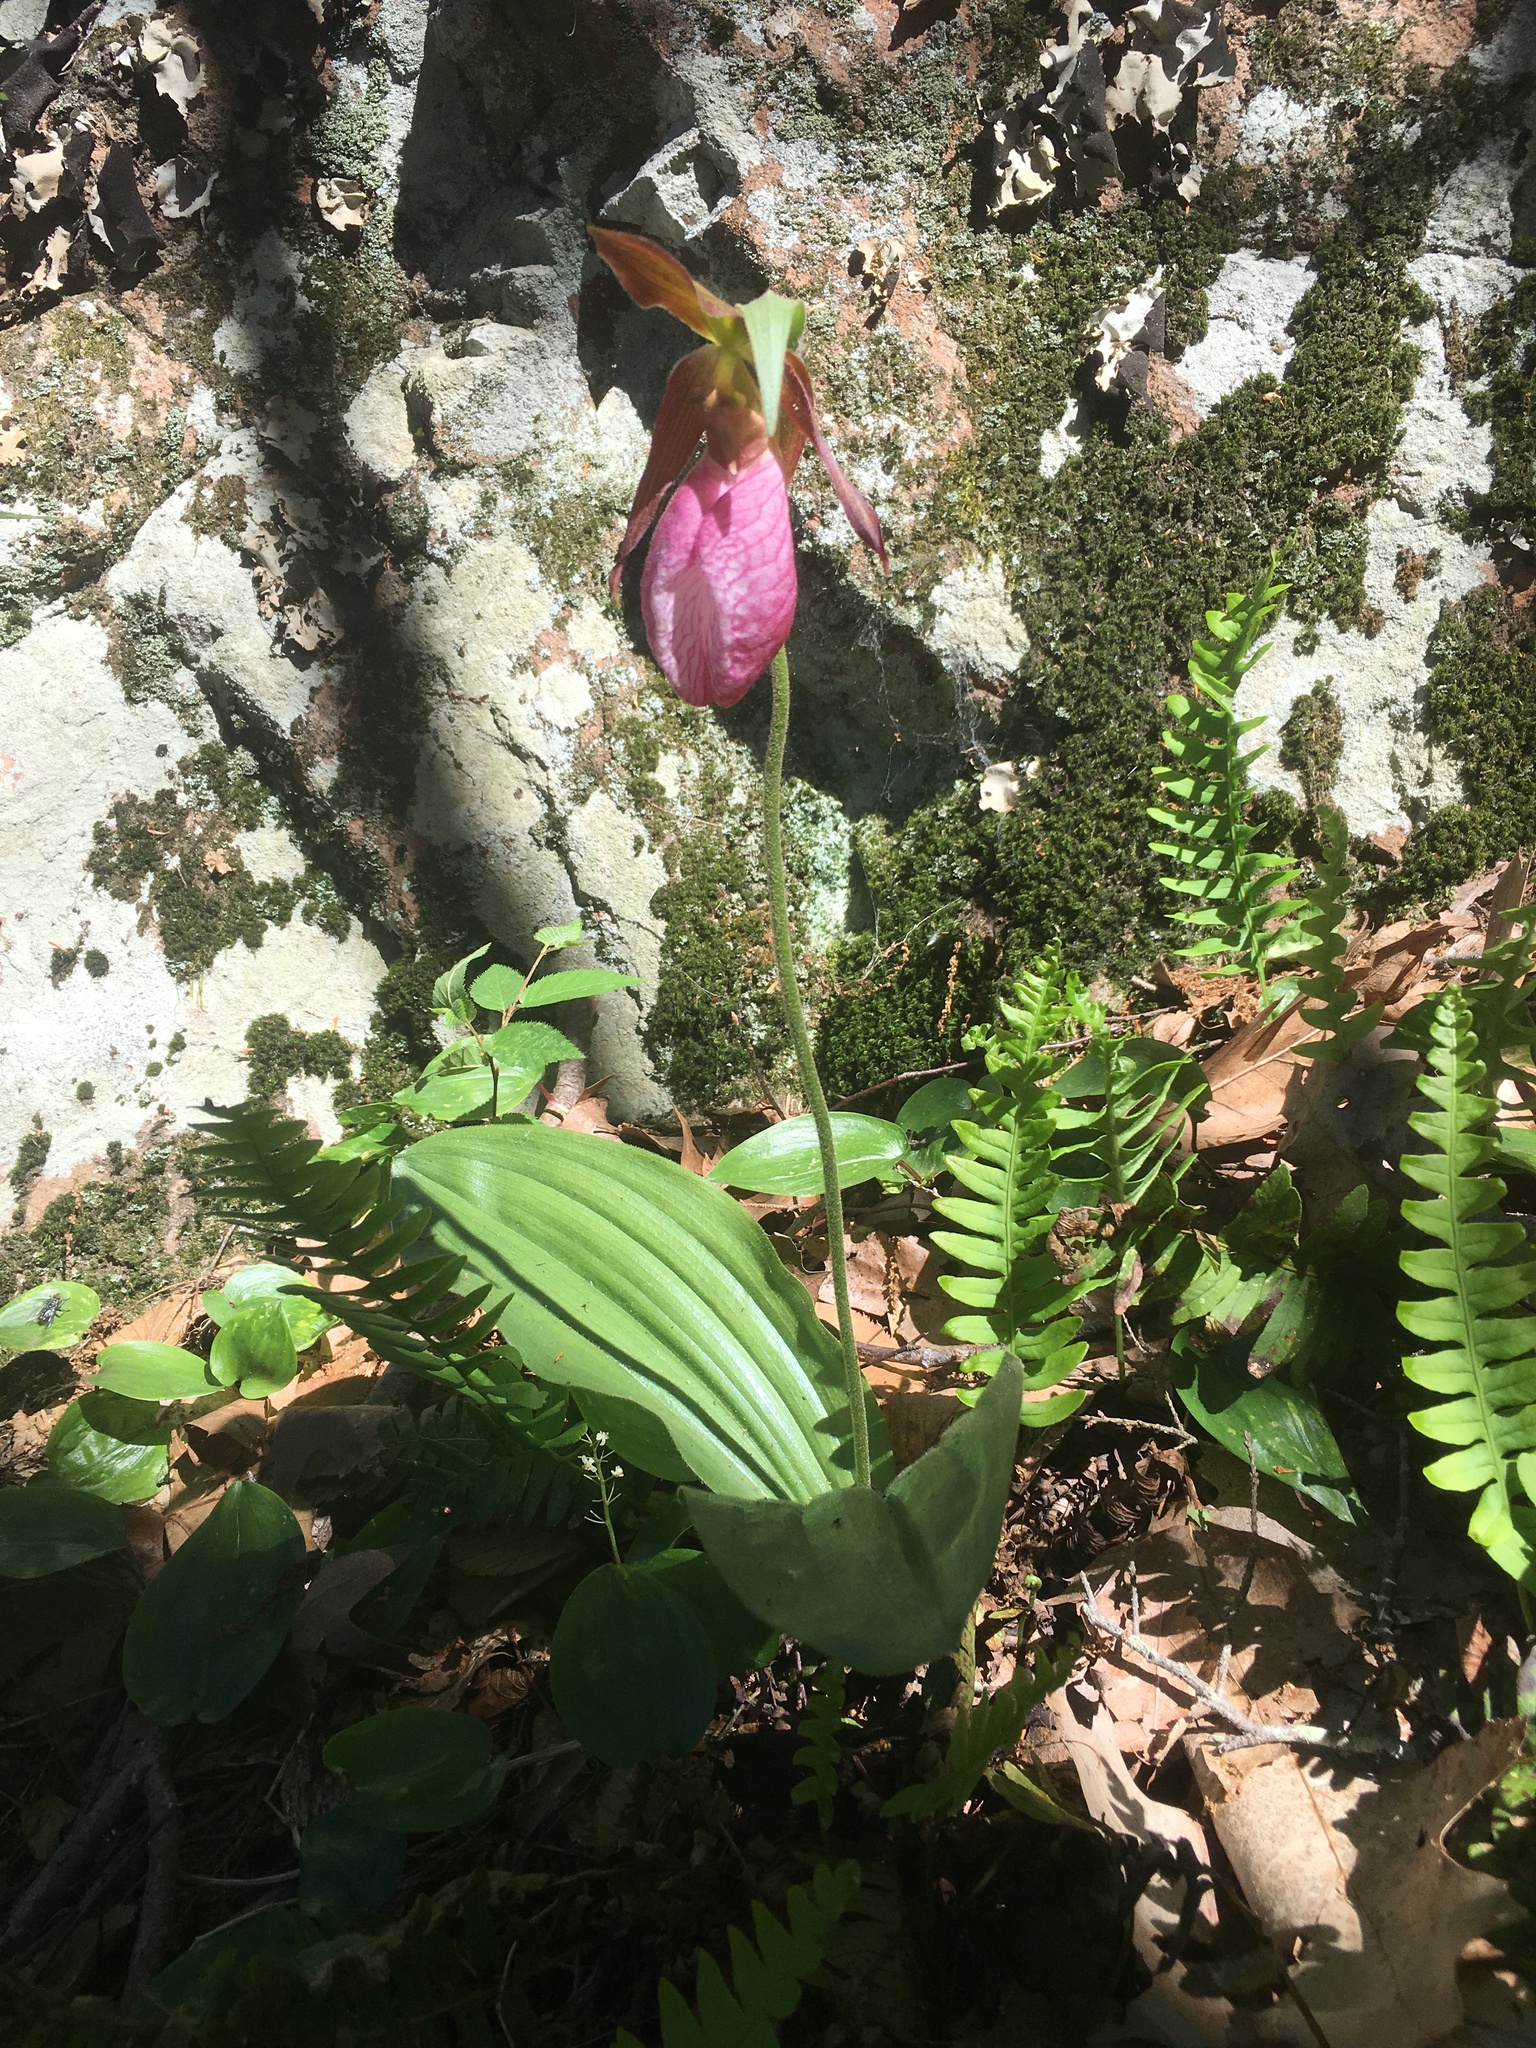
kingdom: Plantae
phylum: Tracheophyta
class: Liliopsida
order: Asparagales
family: Orchidaceae
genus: Cypripedium
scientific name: Cypripedium acaule
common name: Pink lady's-slipper
